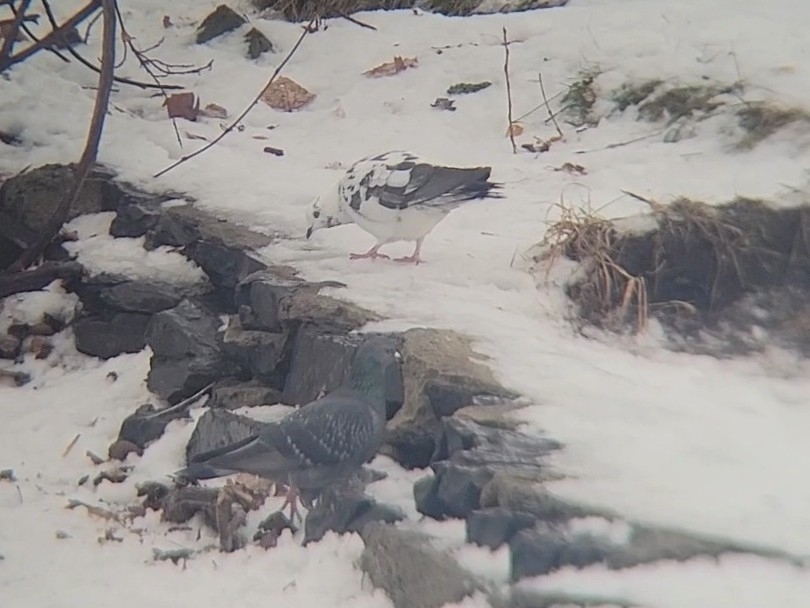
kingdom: Animalia
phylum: Chordata
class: Aves
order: Columbiformes
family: Columbidae
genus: Columba
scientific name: Columba livia
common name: Rock pigeon
